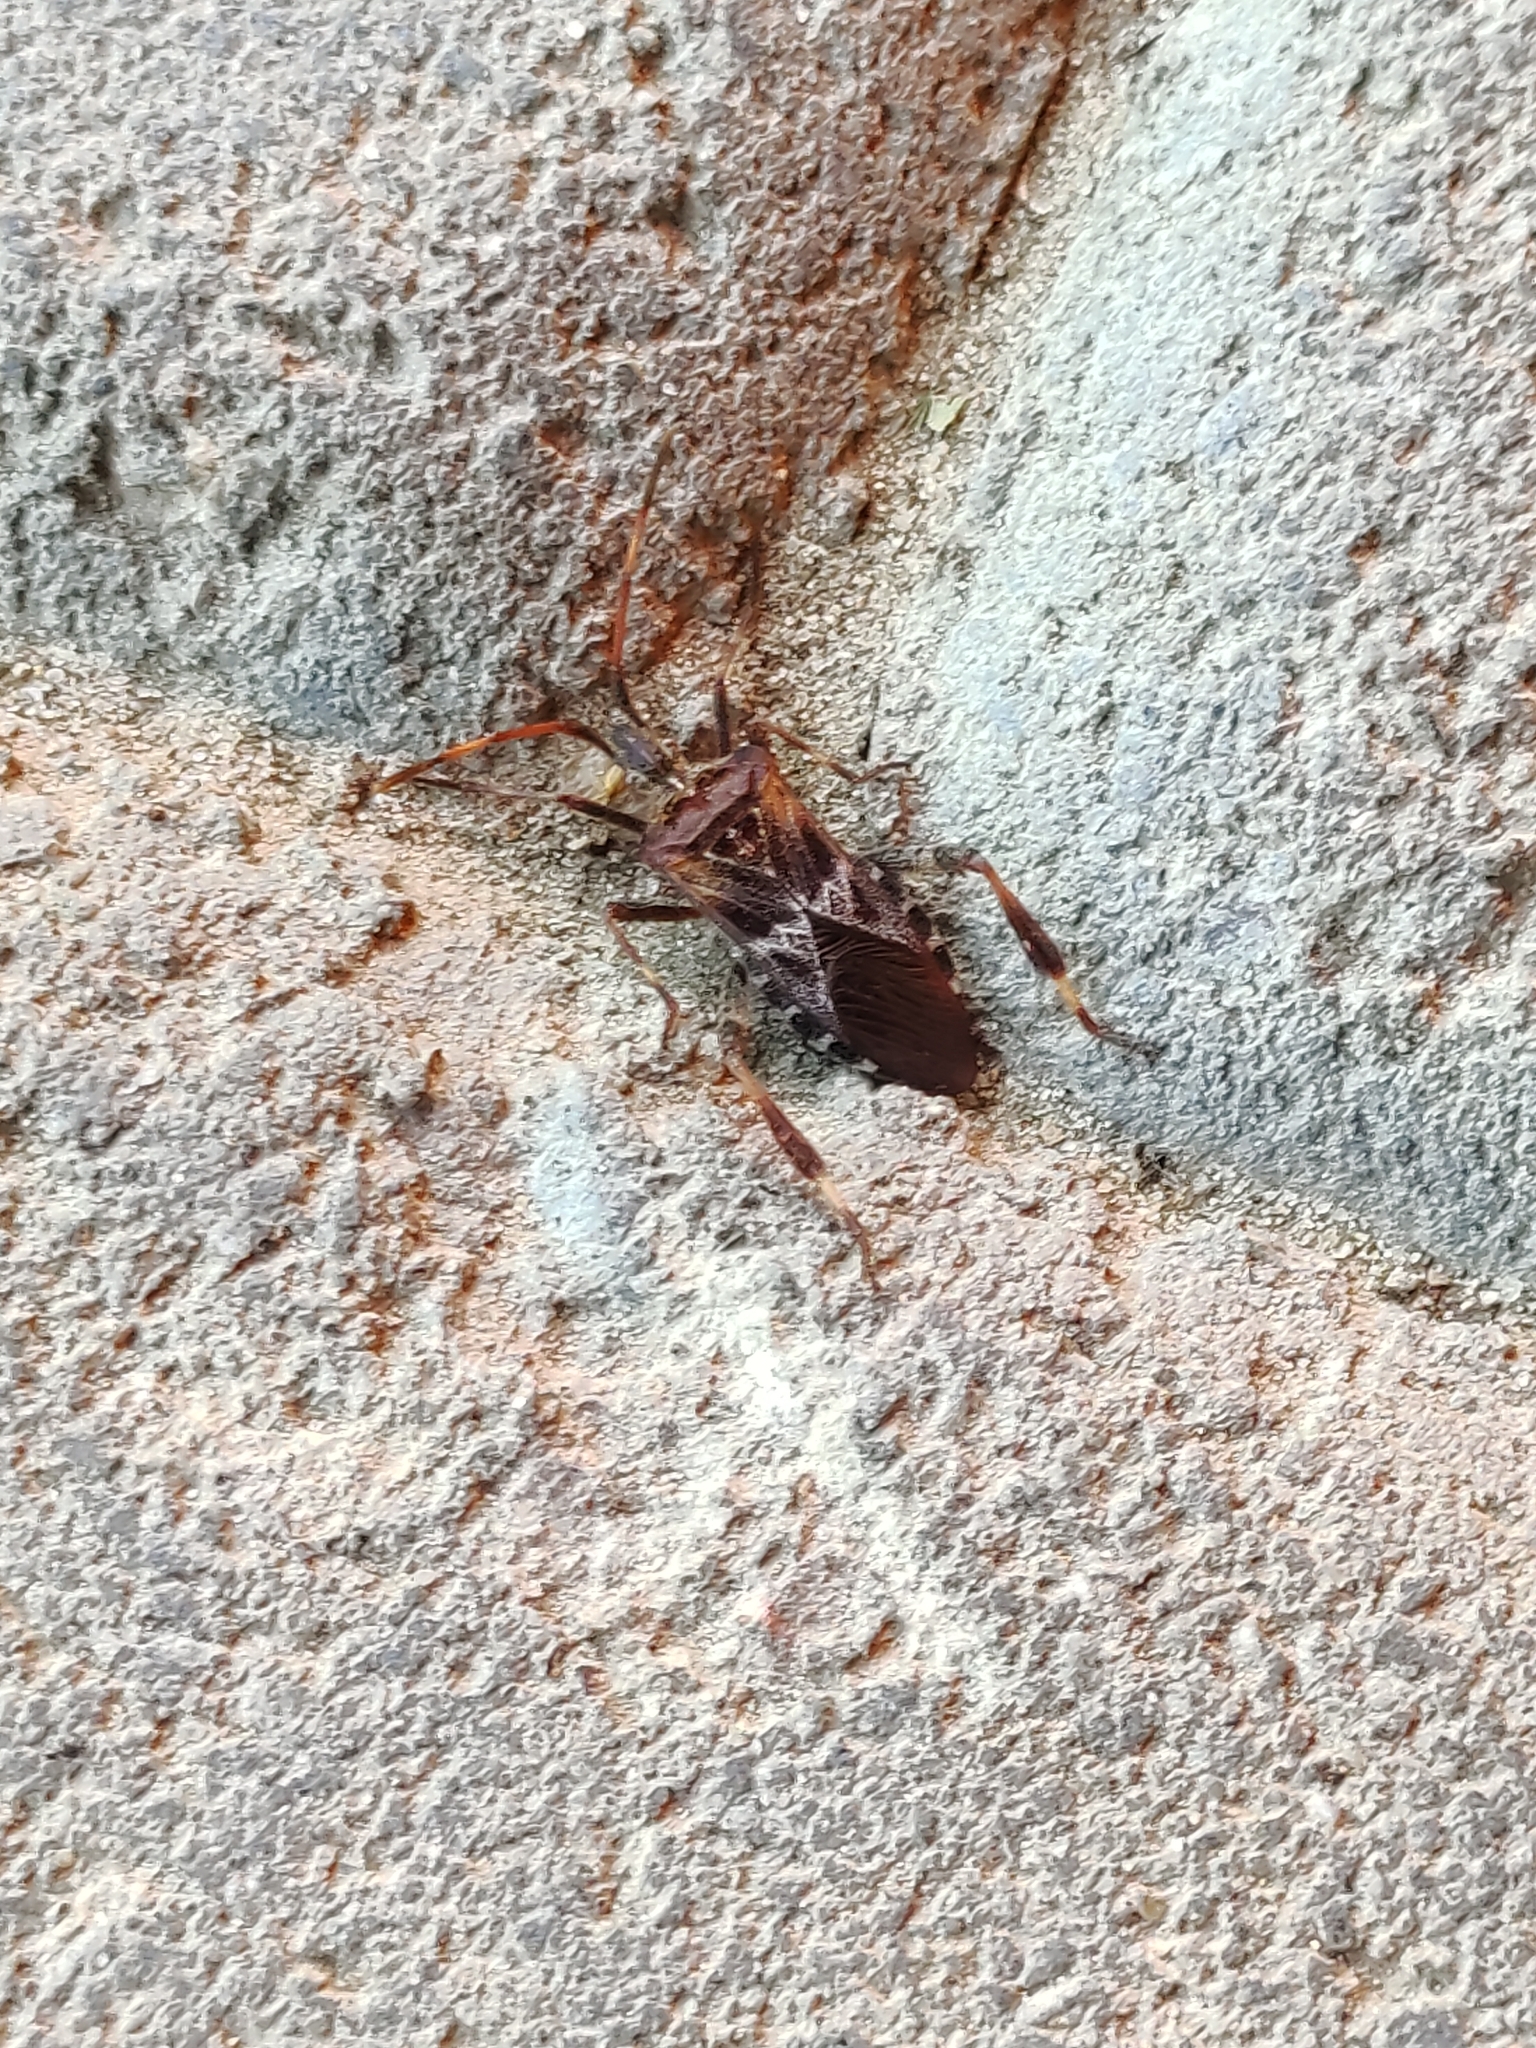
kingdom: Animalia
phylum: Arthropoda
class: Insecta
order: Hemiptera
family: Coreidae
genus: Leptoglossus
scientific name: Leptoglossus occidentalis
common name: Western conifer-seed bug
